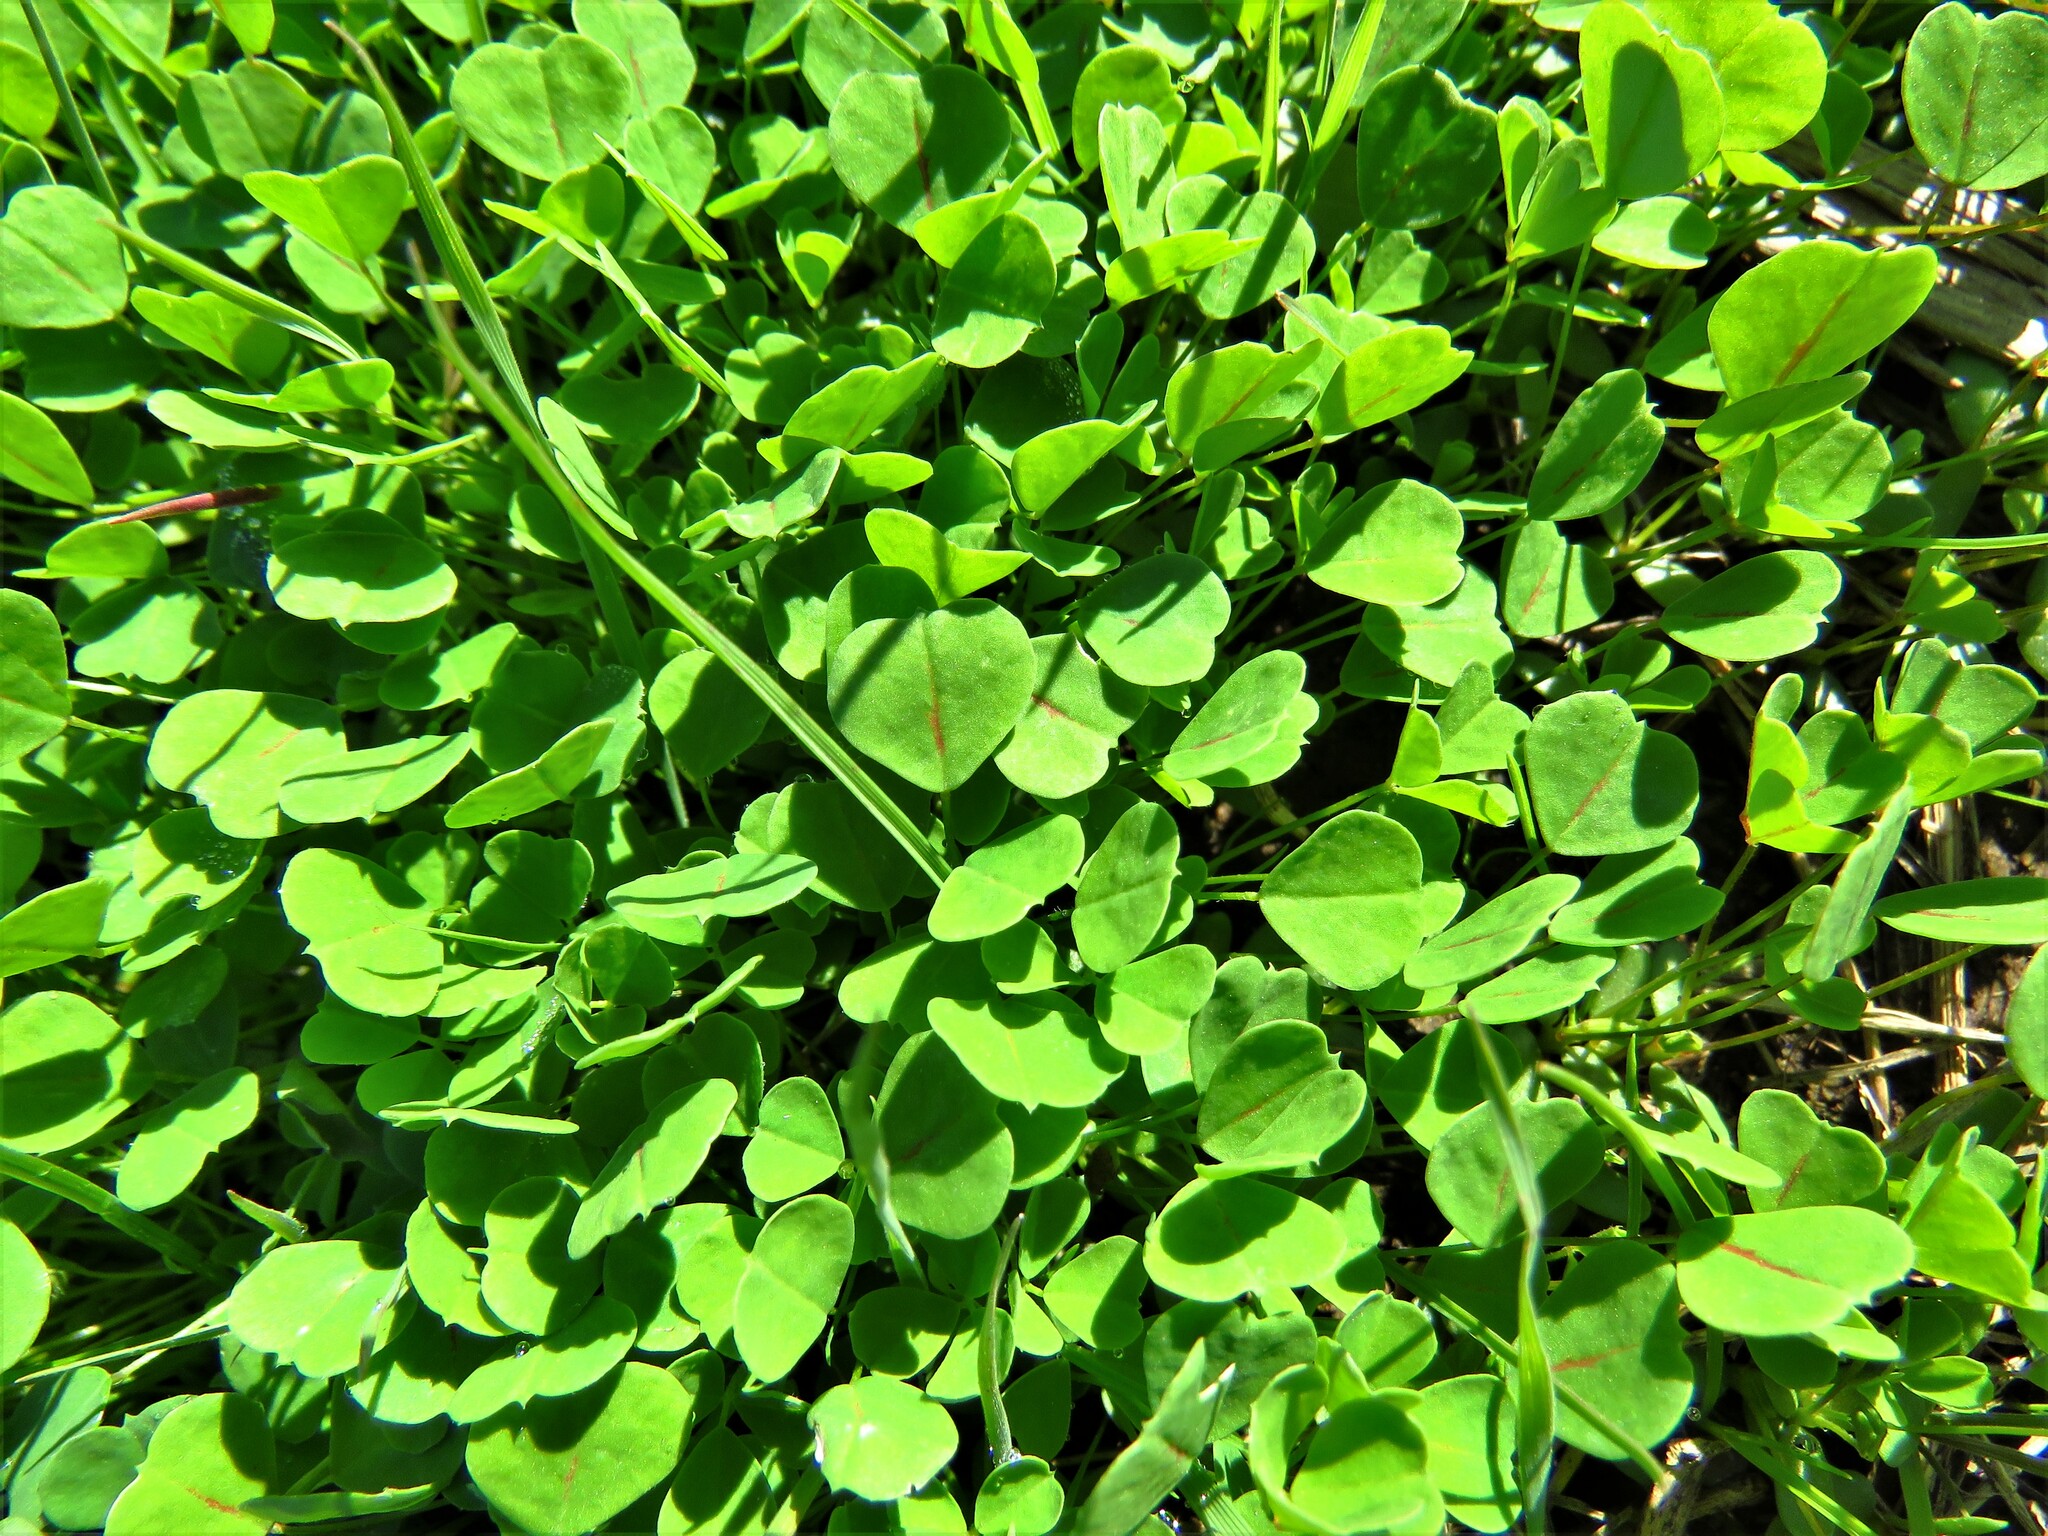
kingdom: Plantae
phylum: Tracheophyta
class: Magnoliopsida
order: Fabales
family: Fabaceae
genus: Melilotus
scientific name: Melilotus indicus
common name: Small melilot
